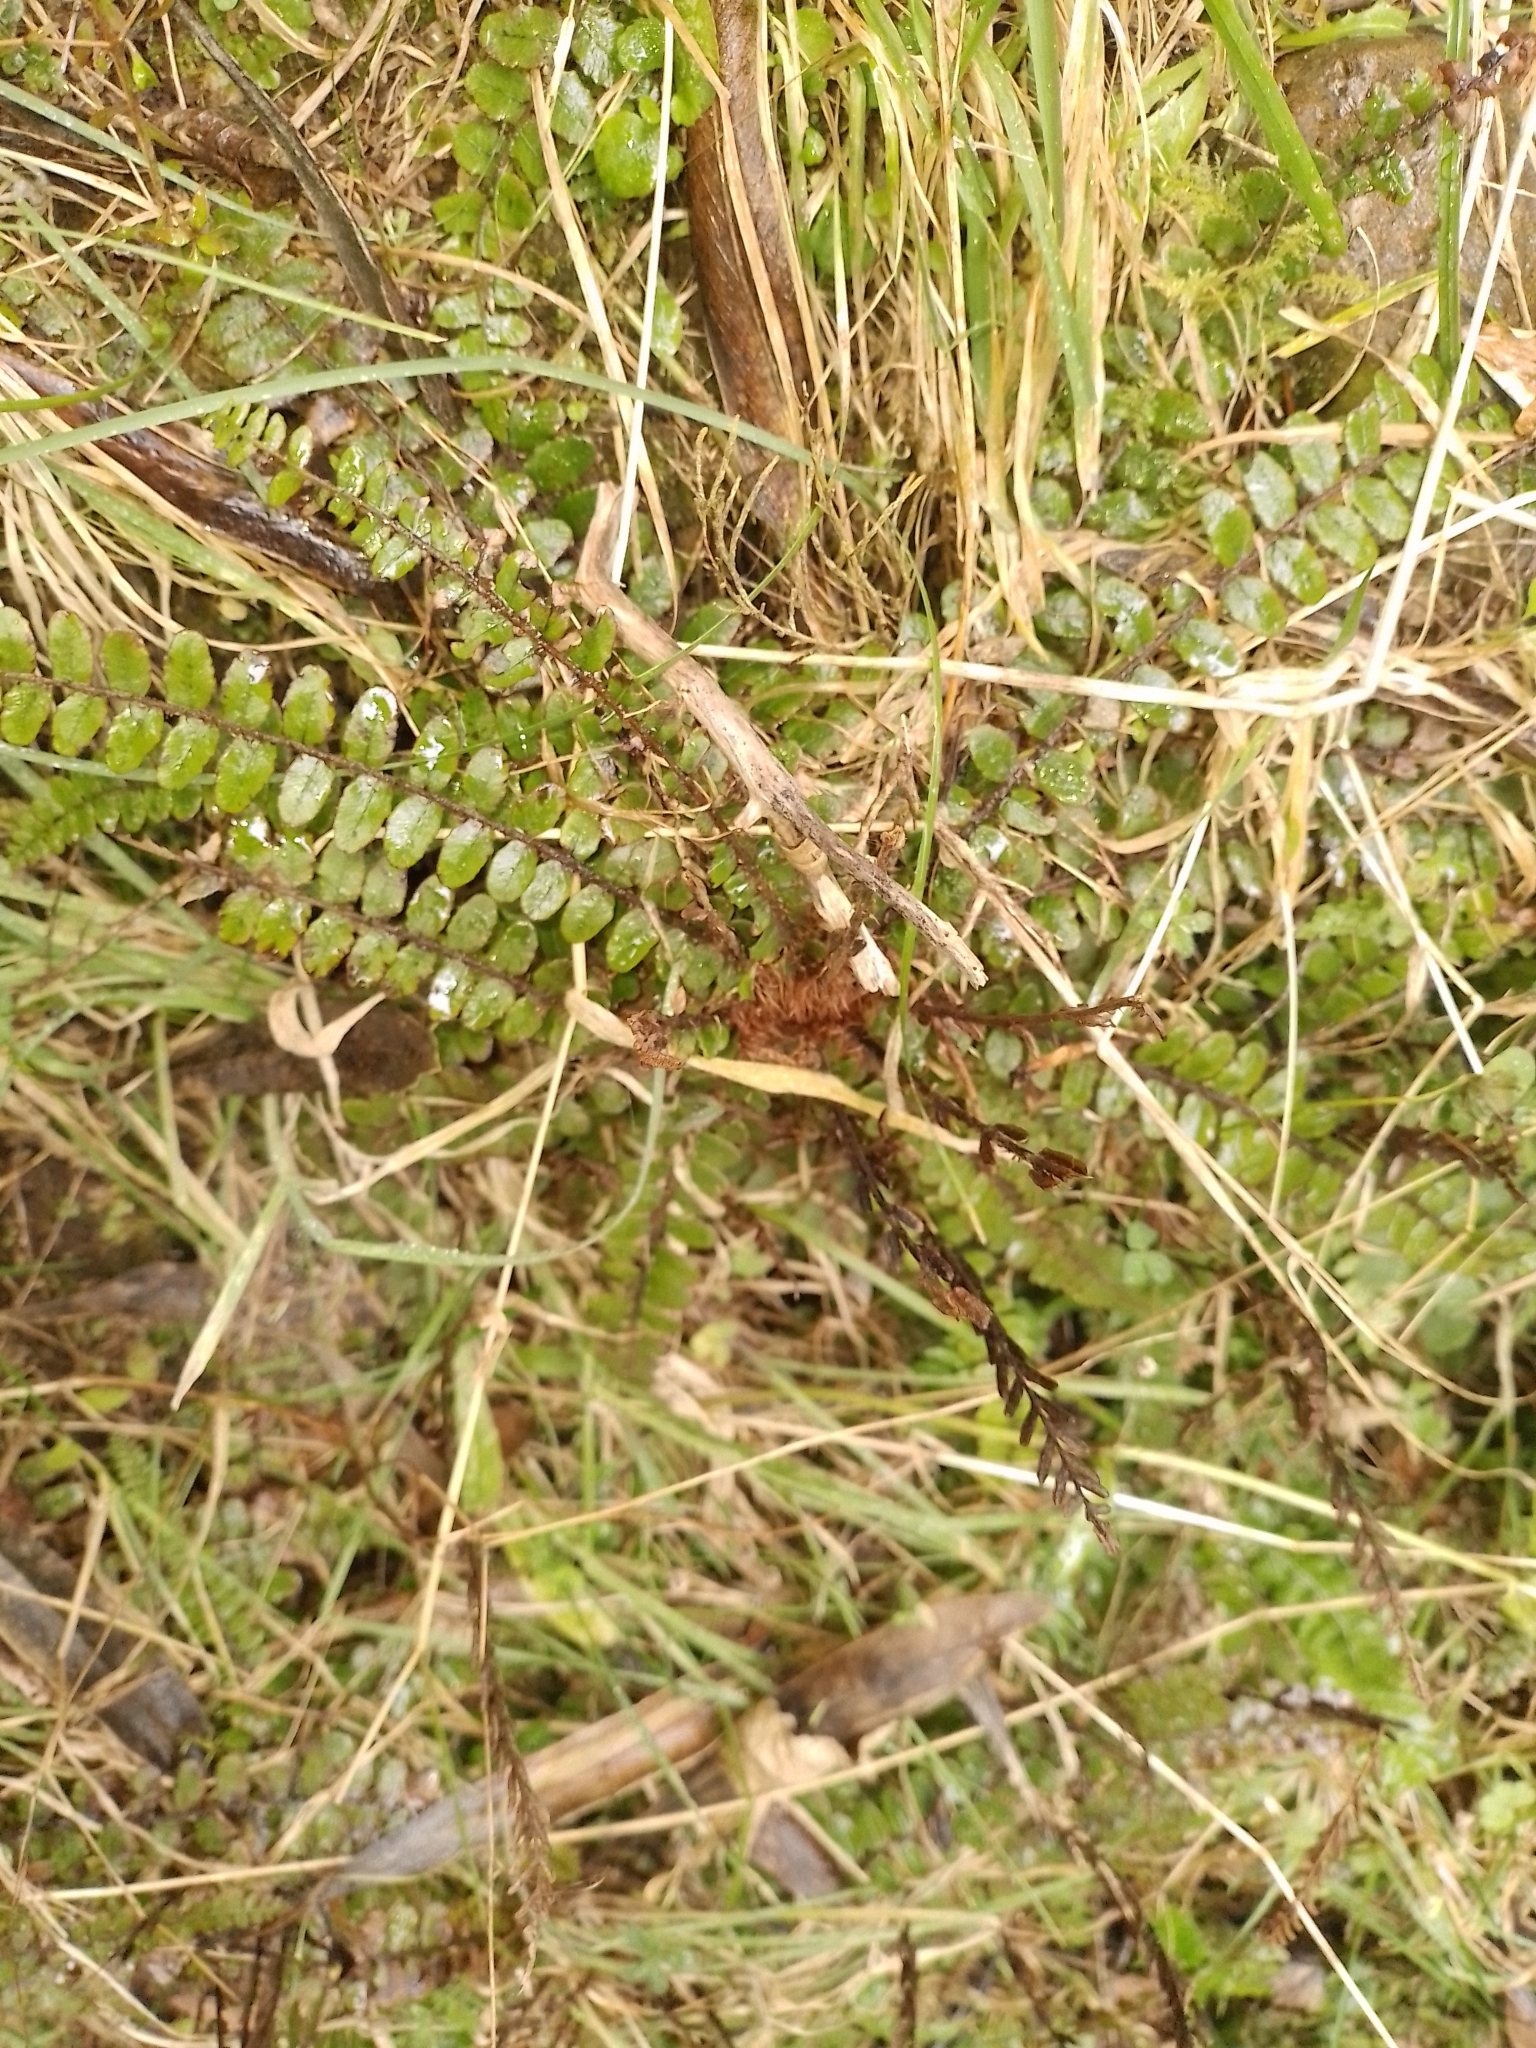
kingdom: Plantae
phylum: Tracheophyta
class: Polypodiopsida
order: Polypodiales
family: Blechnaceae
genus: Cranfillia
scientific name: Cranfillia fluviatilis
